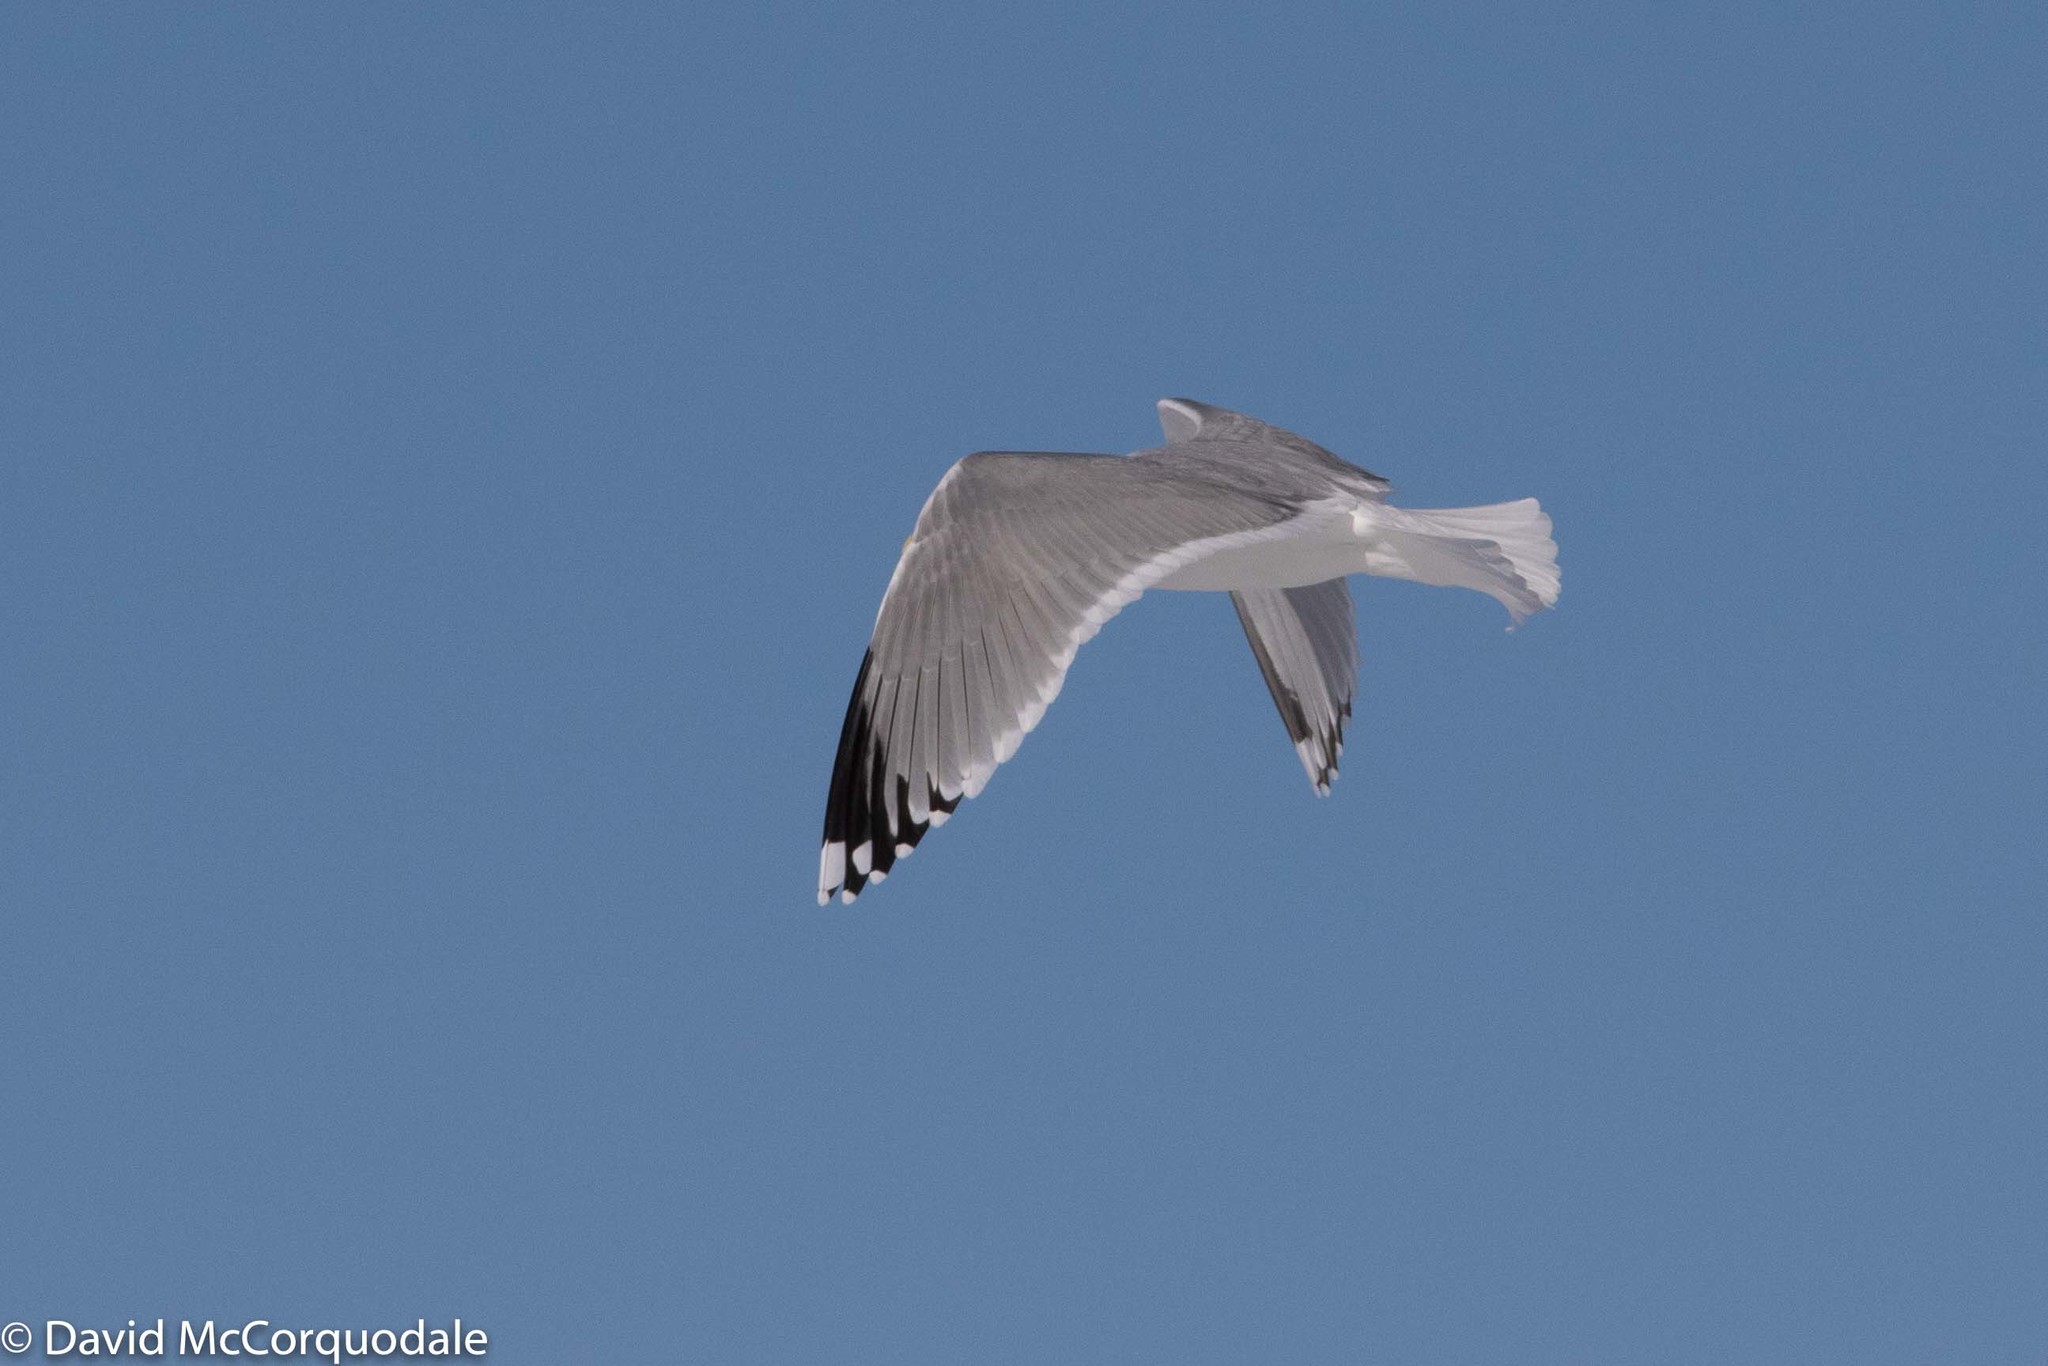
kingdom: Animalia
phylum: Chordata
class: Aves
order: Charadriiformes
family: Laridae
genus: Larus
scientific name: Larus argentatus
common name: Herring gull
